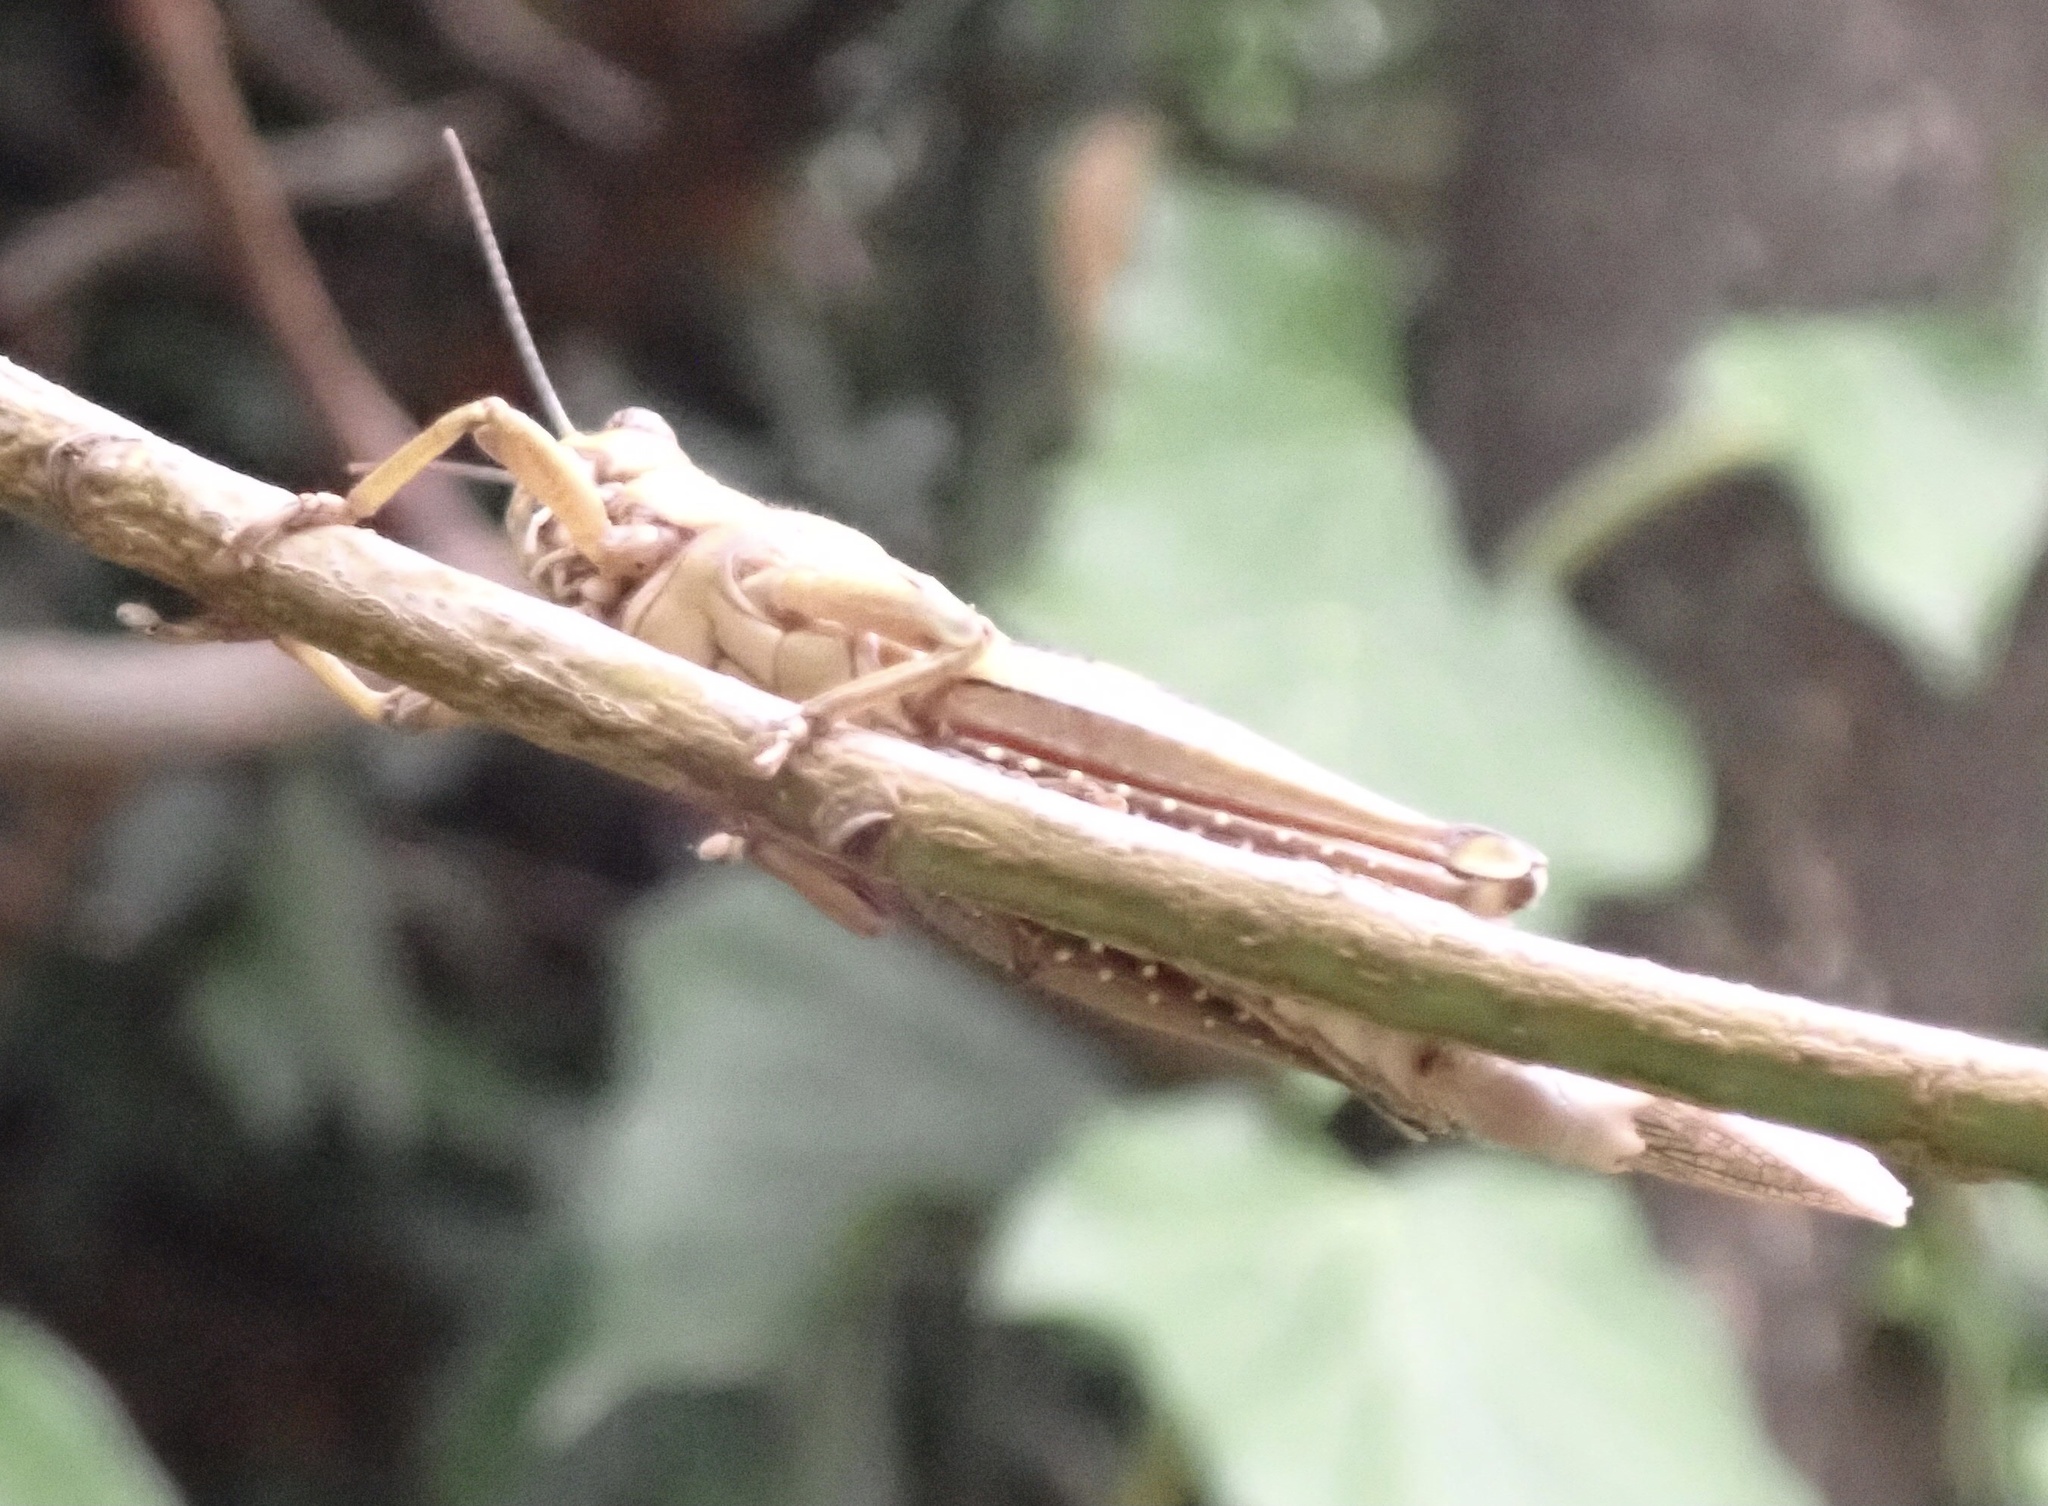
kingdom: Animalia
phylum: Arthropoda
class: Insecta
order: Orthoptera
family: Acrididae
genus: Anacridium
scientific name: Anacridium aegyptium
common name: Egyptian grasshopper
